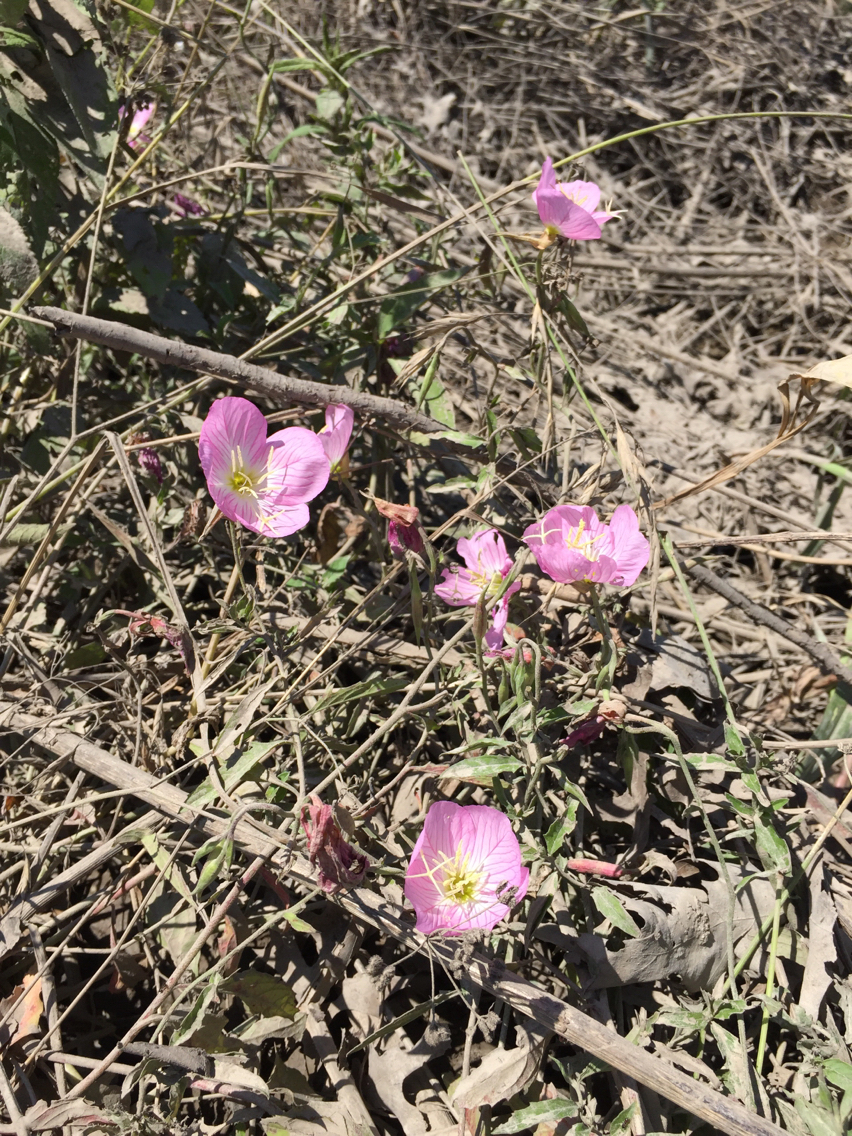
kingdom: Plantae
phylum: Tracheophyta
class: Magnoliopsida
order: Myrtales
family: Onagraceae
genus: Oenothera
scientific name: Oenothera speciosa
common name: White evening-primrose
